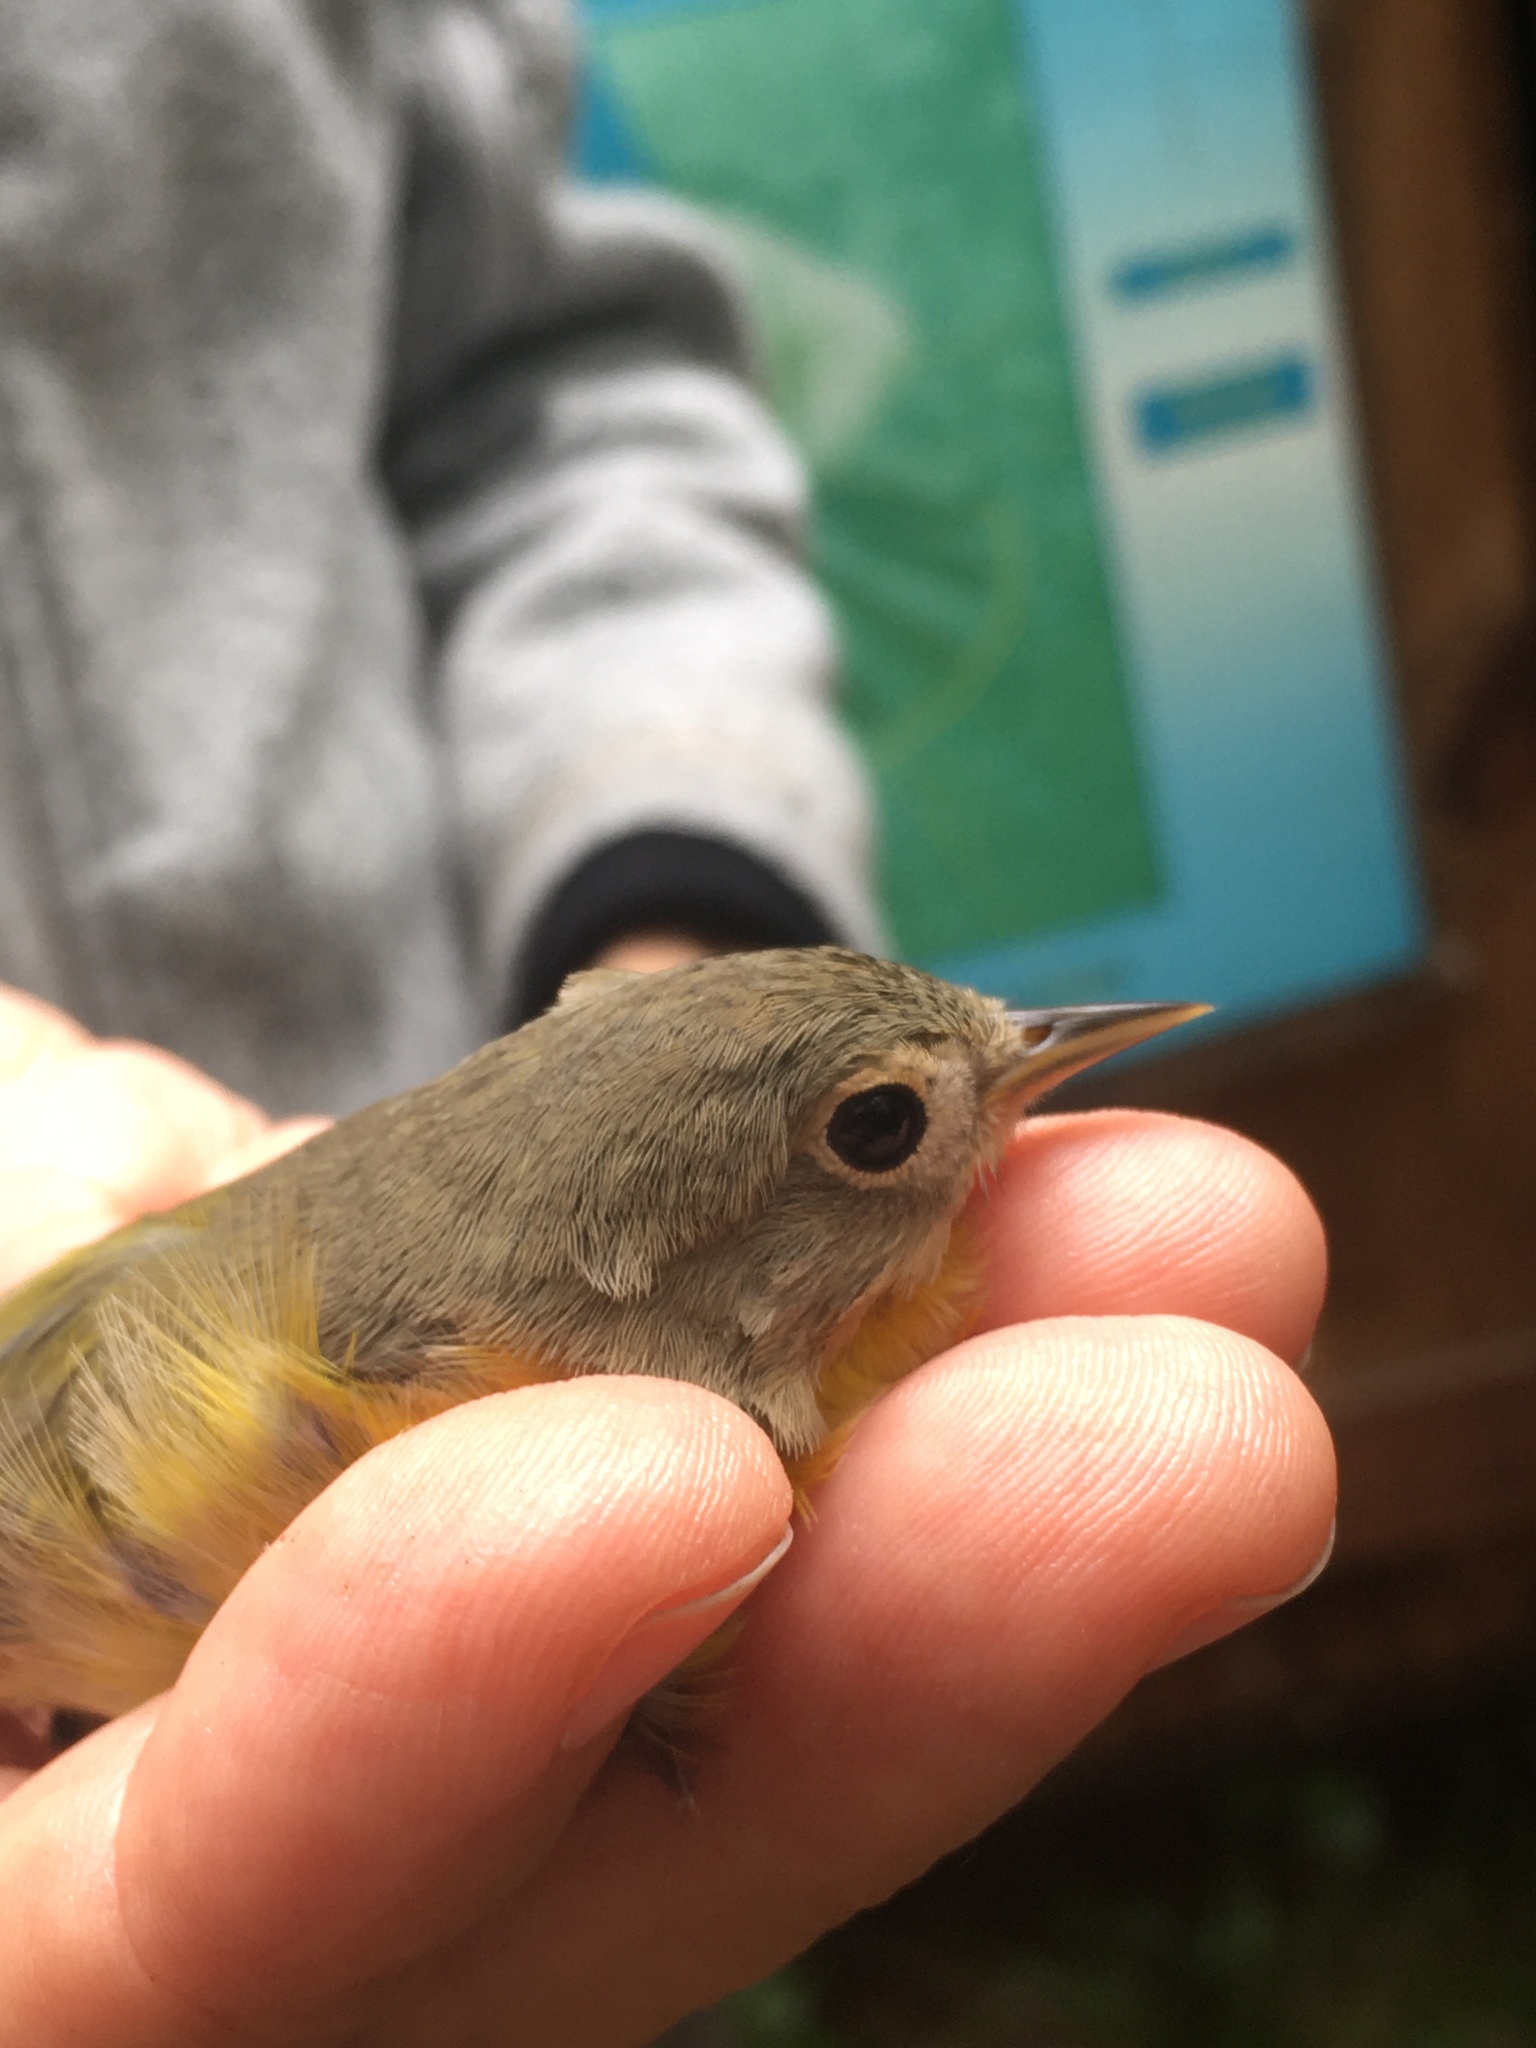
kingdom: Animalia
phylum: Chordata
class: Aves
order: Passeriformes
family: Parulidae
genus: Leiothlypis
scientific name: Leiothlypis ruficapilla
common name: Nashville warbler
